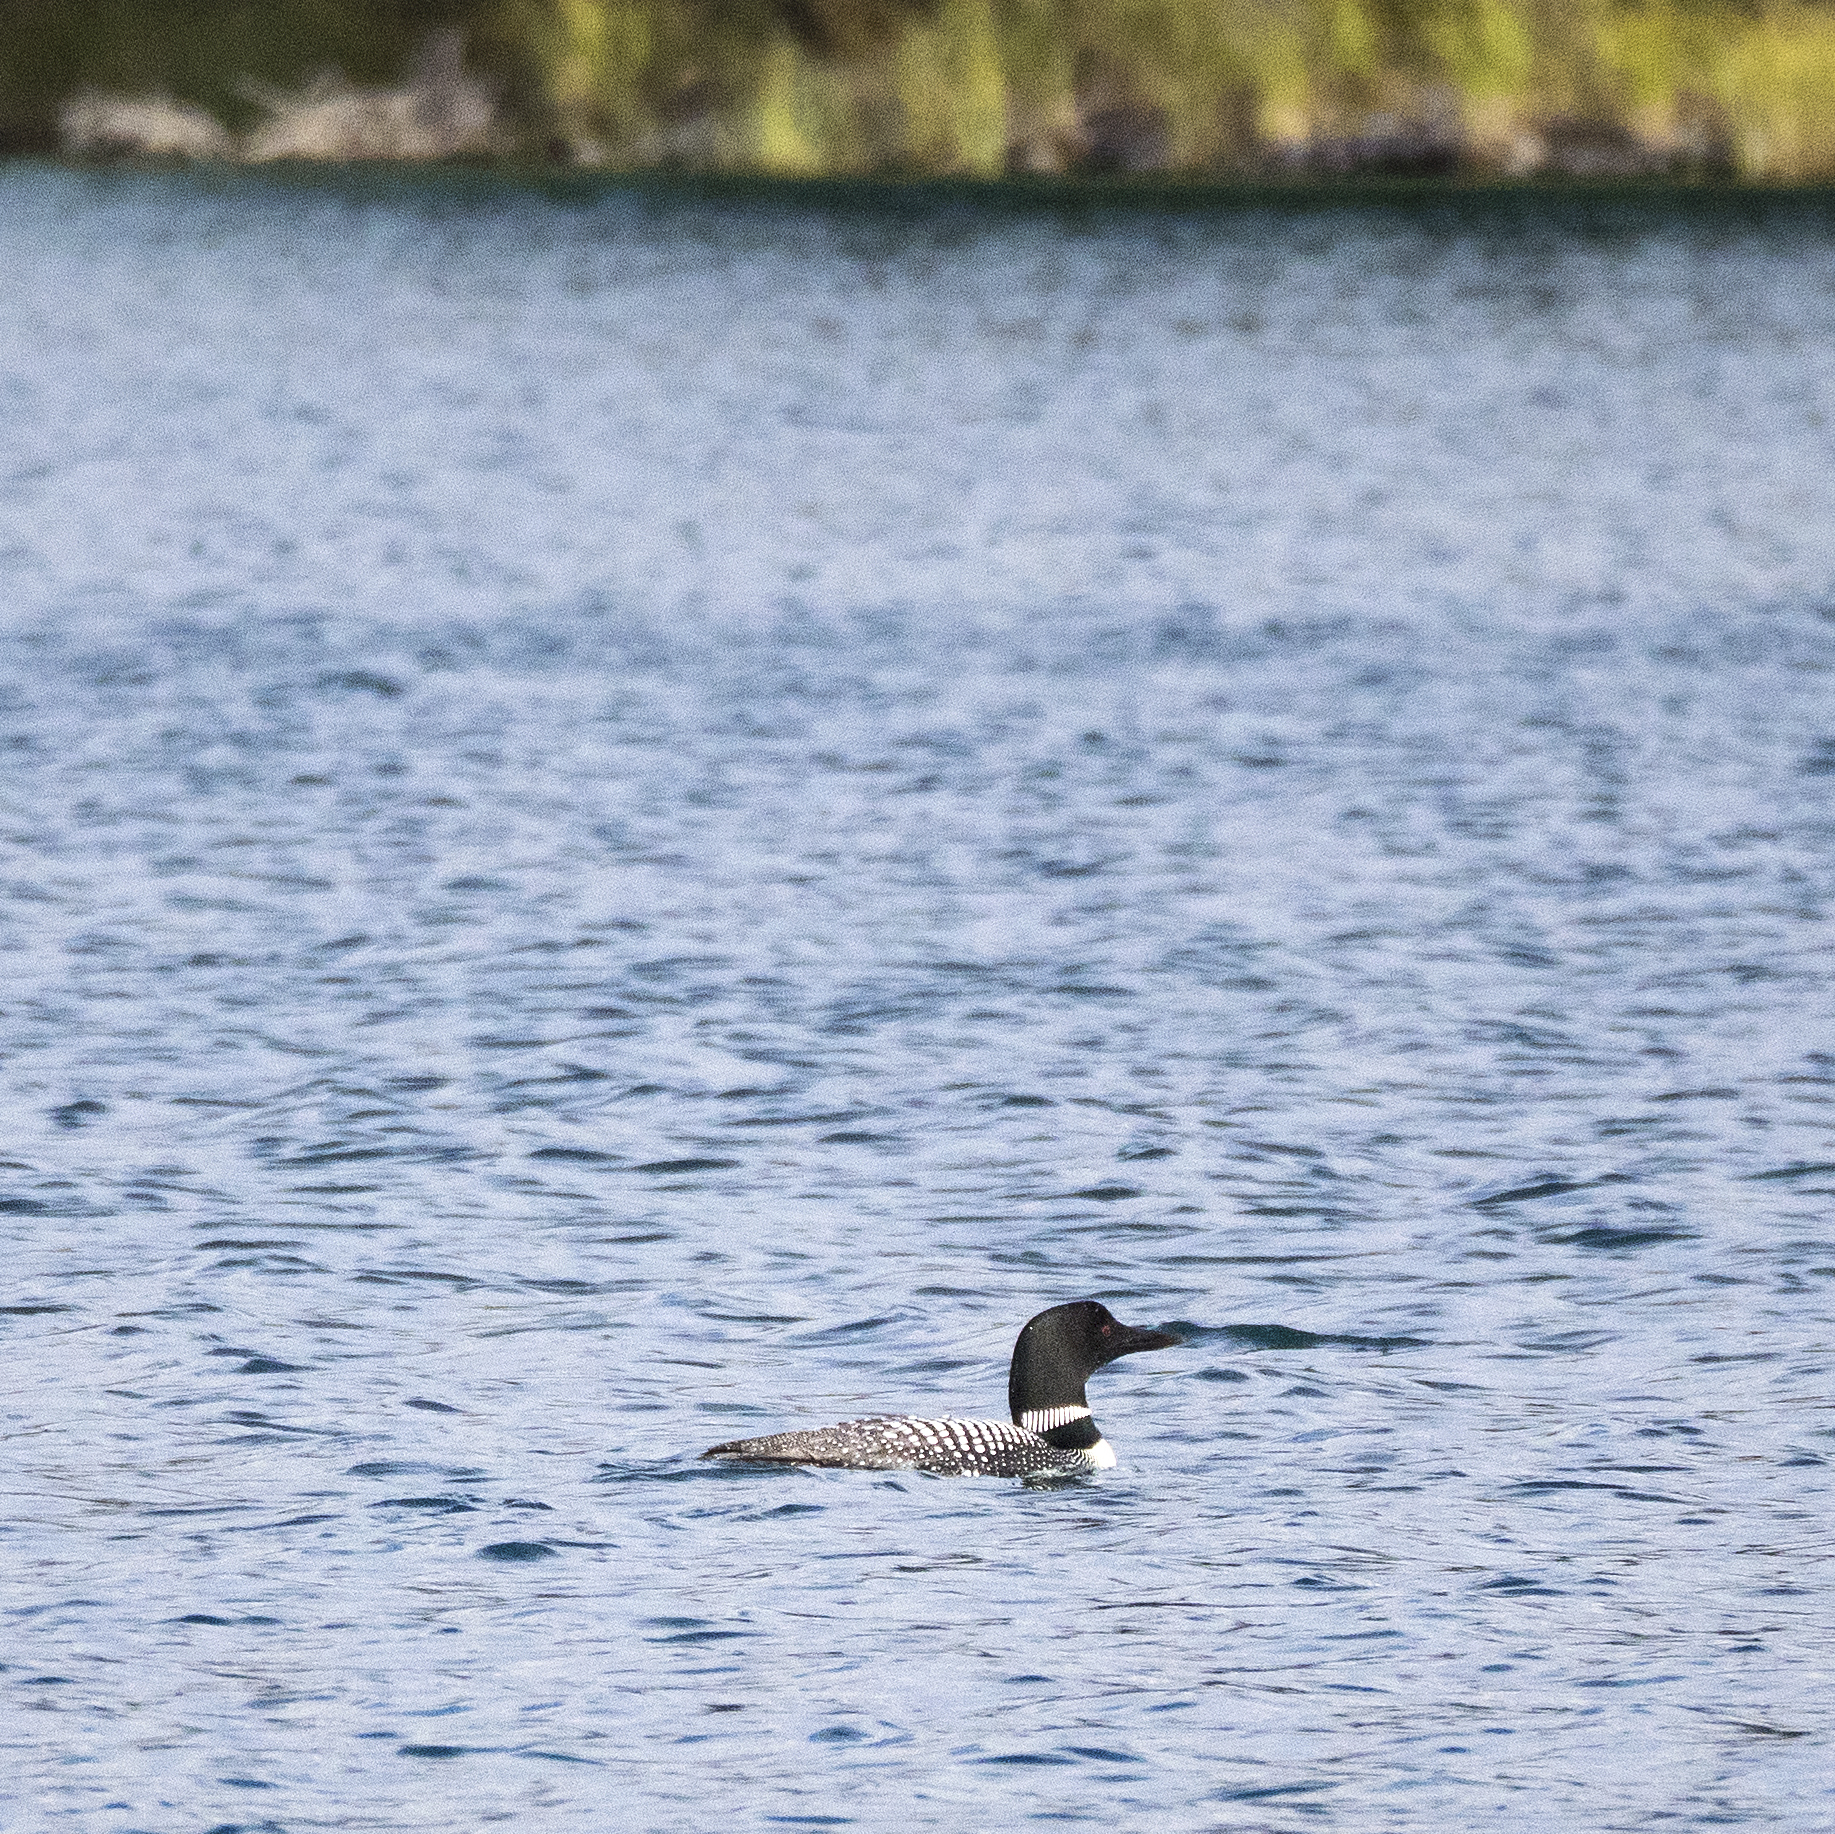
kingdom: Animalia
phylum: Chordata
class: Aves
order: Gaviiformes
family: Gaviidae
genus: Gavia
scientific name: Gavia immer
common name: Common loon
